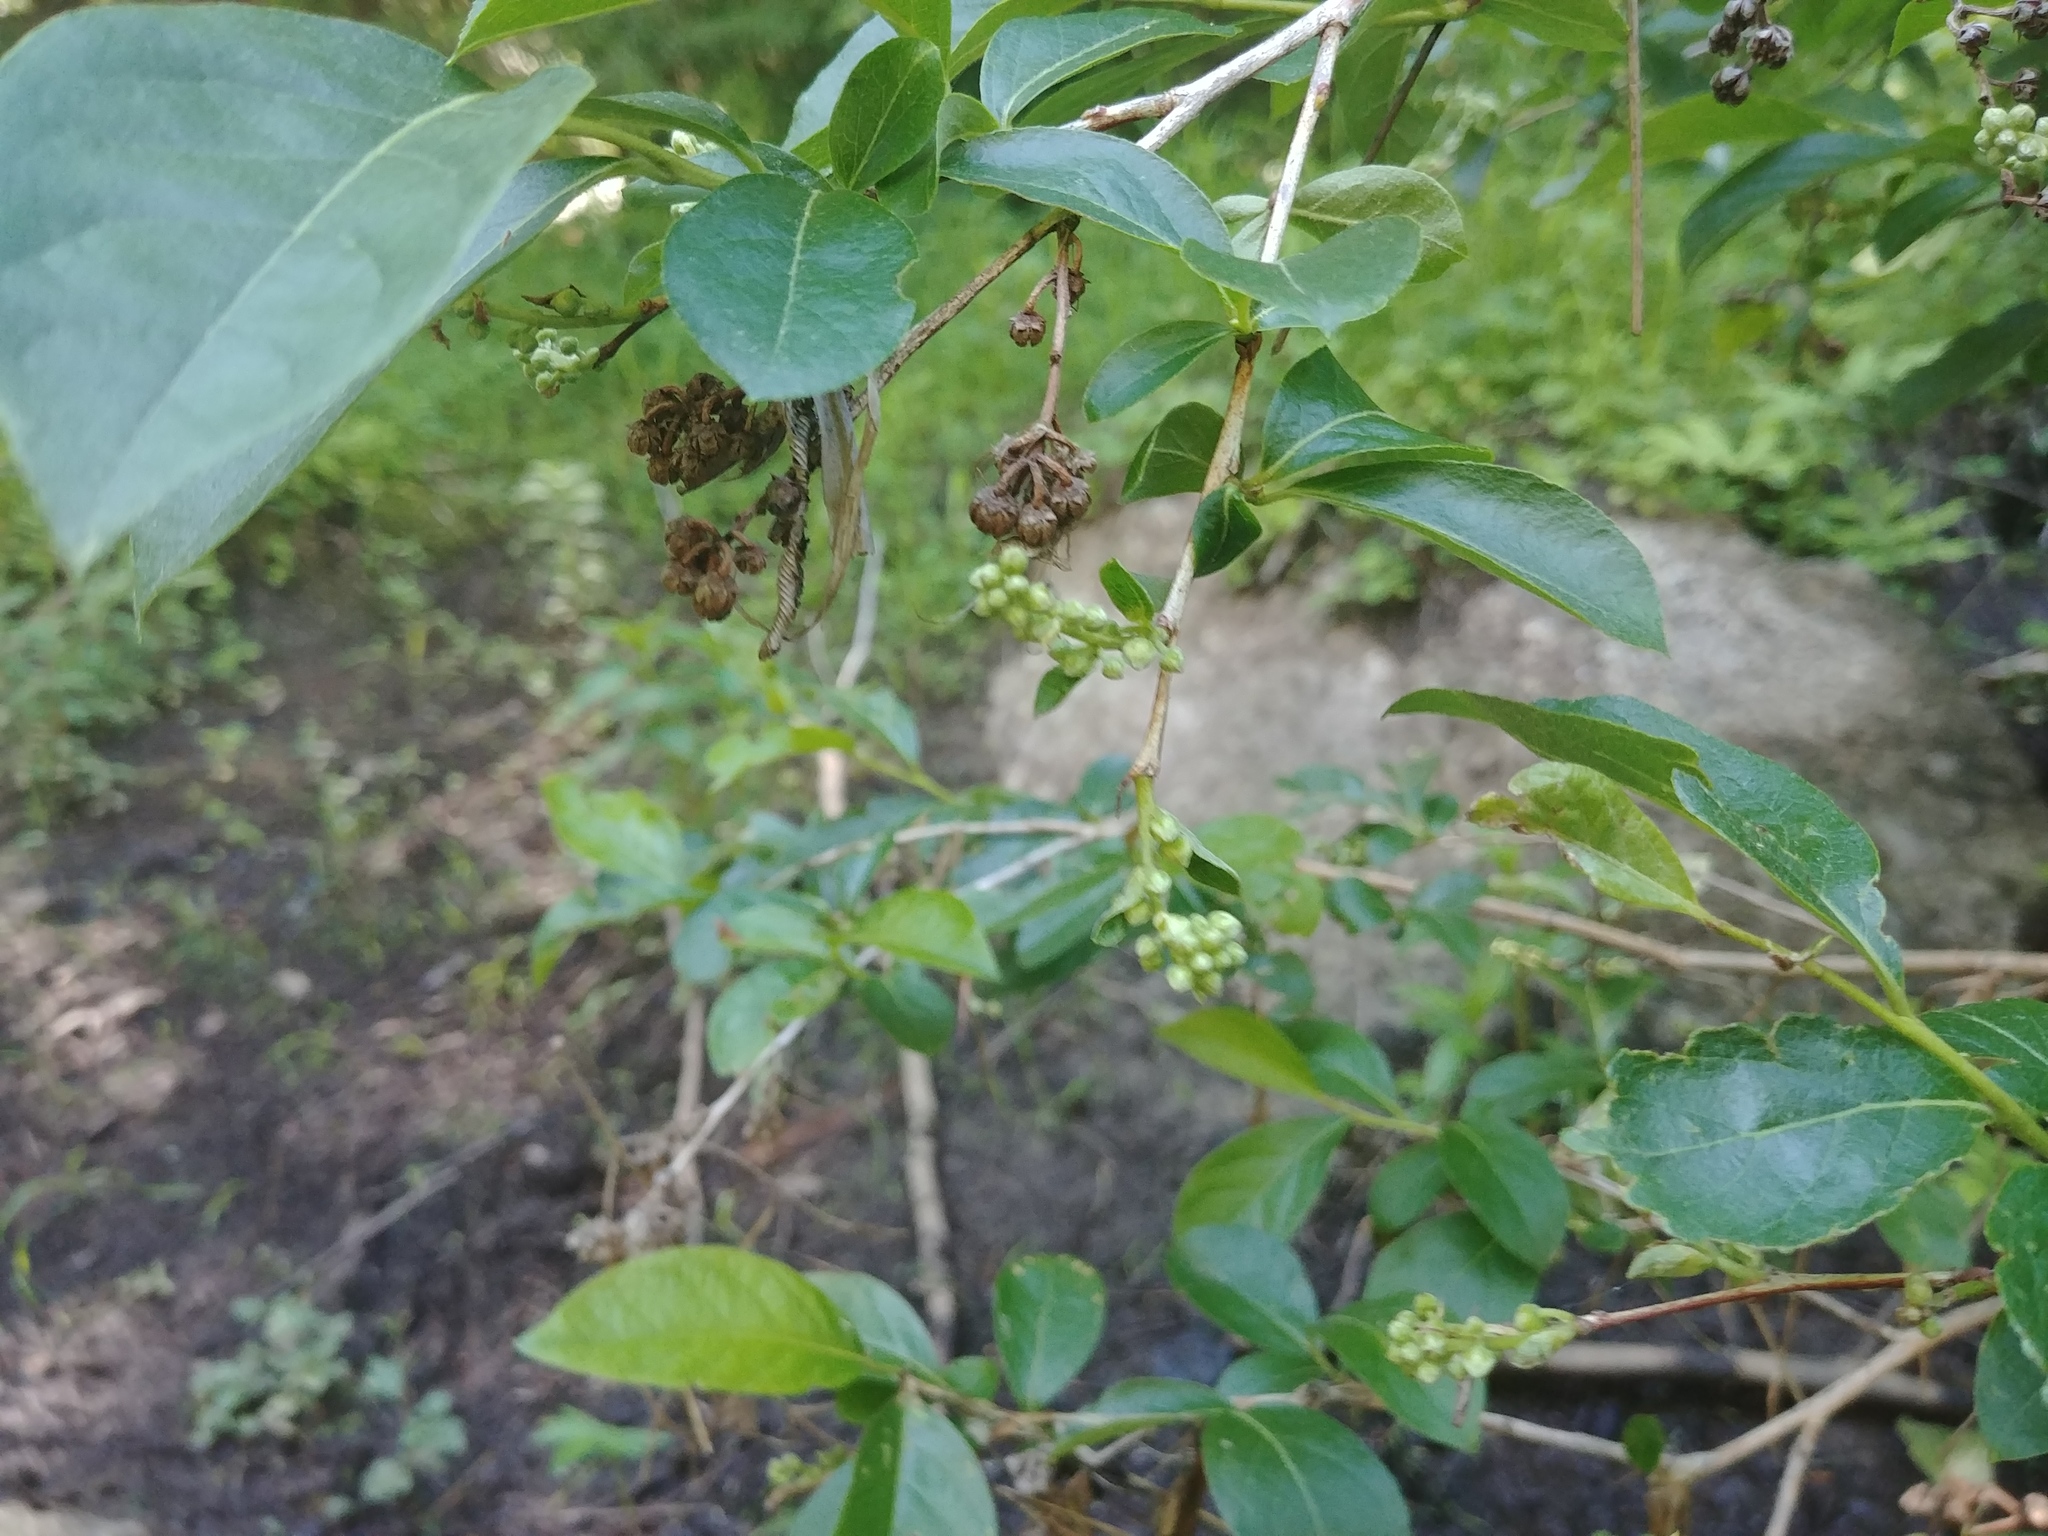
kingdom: Plantae
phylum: Tracheophyta
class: Magnoliopsida
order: Ericales
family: Ericaceae
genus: Lyonia
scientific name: Lyonia ligustrina
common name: Maleberry
